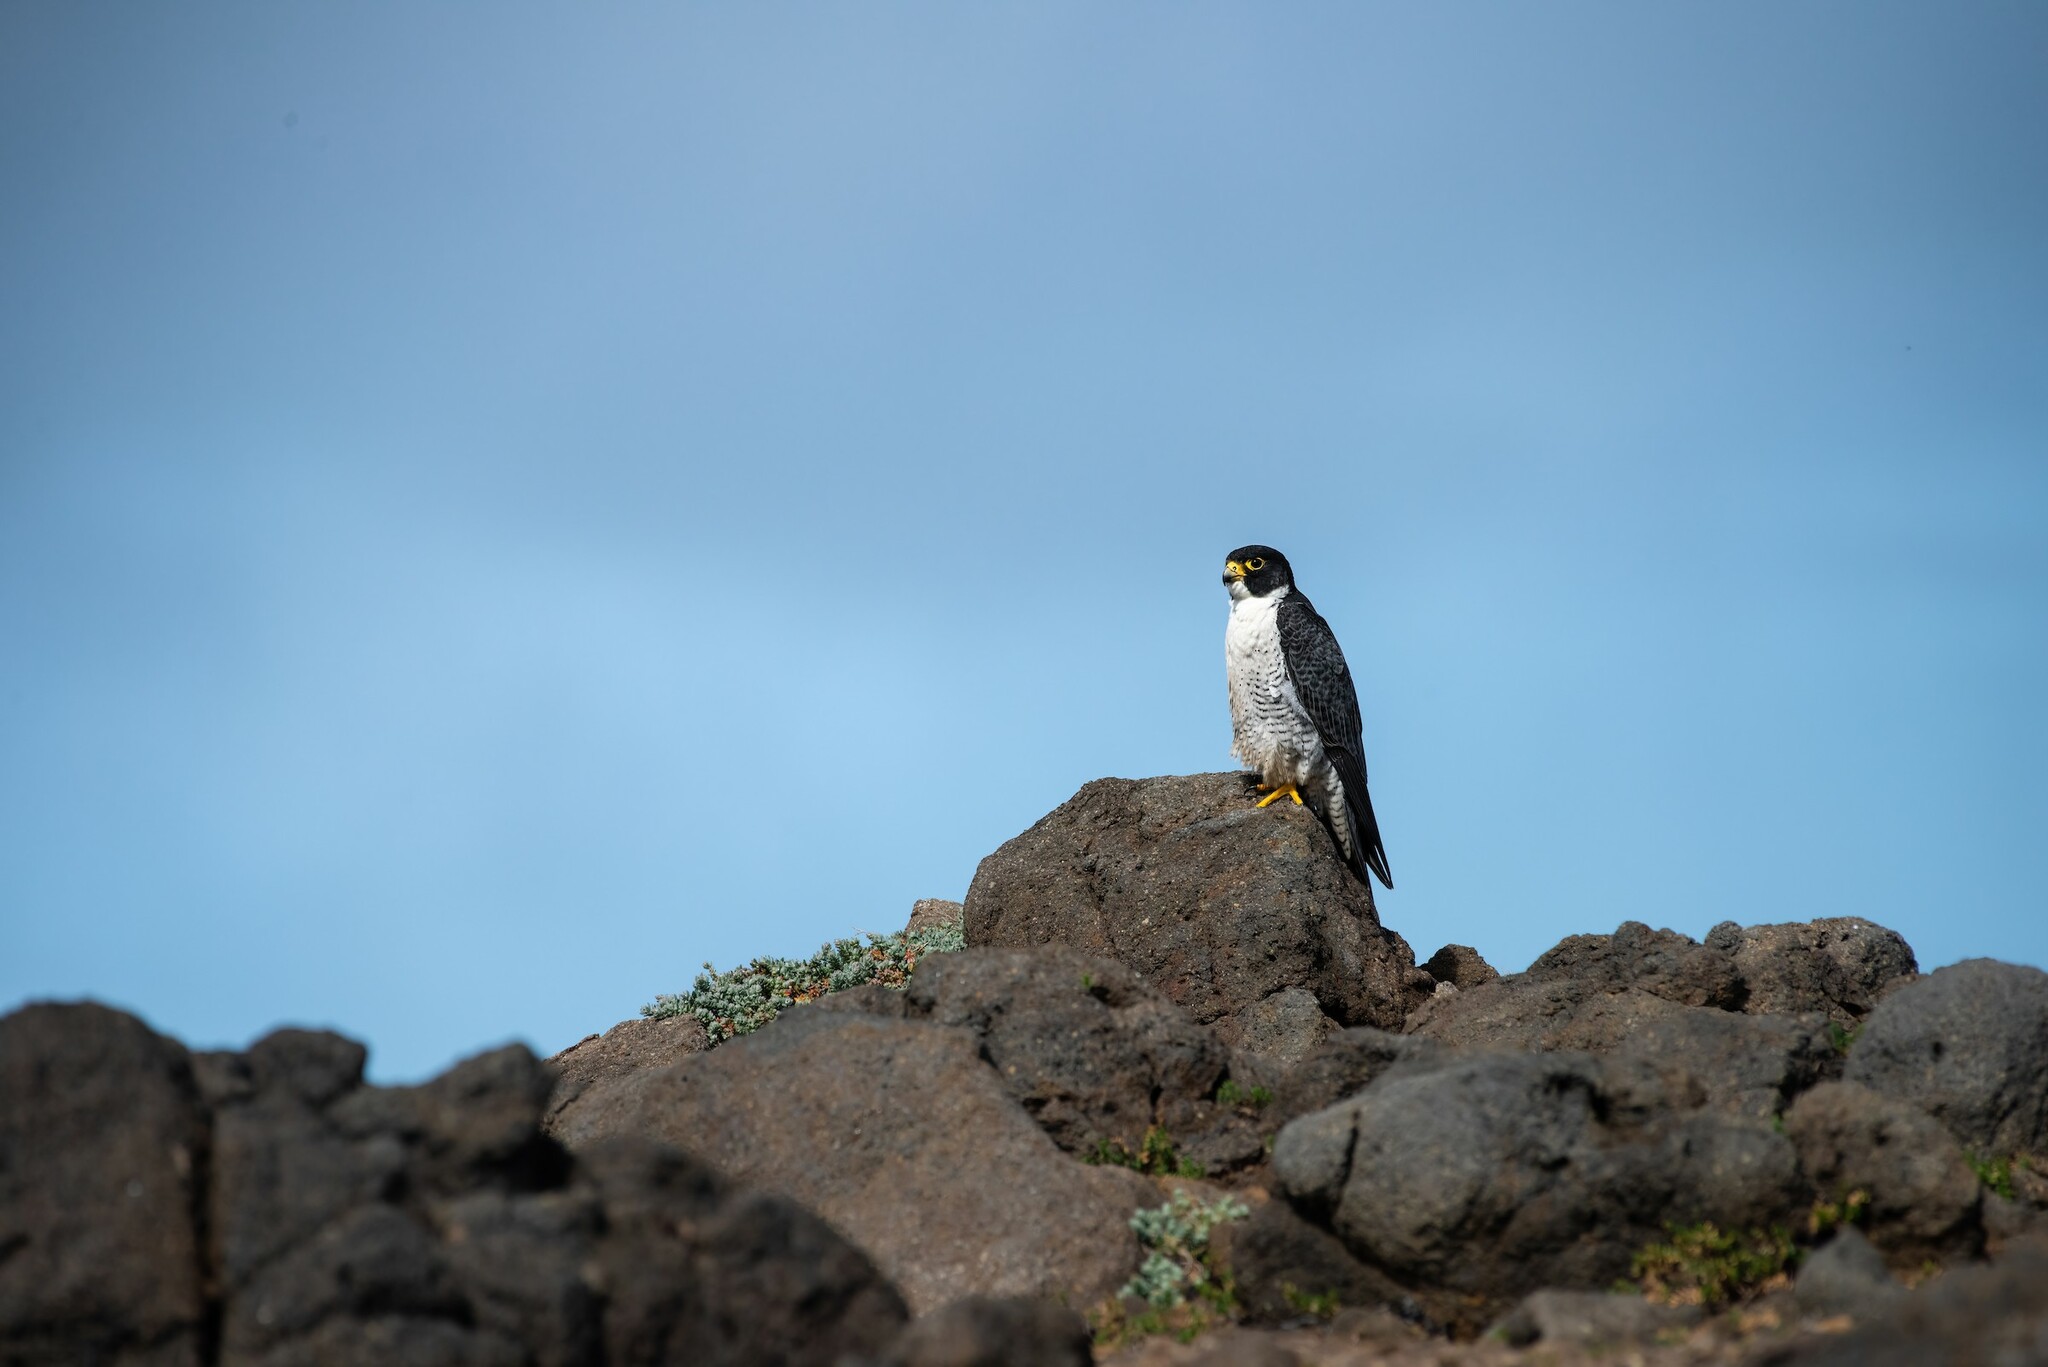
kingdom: Animalia
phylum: Chordata
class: Aves
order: Falconiformes
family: Falconidae
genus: Falco
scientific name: Falco peregrinus
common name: Peregrine falcon
